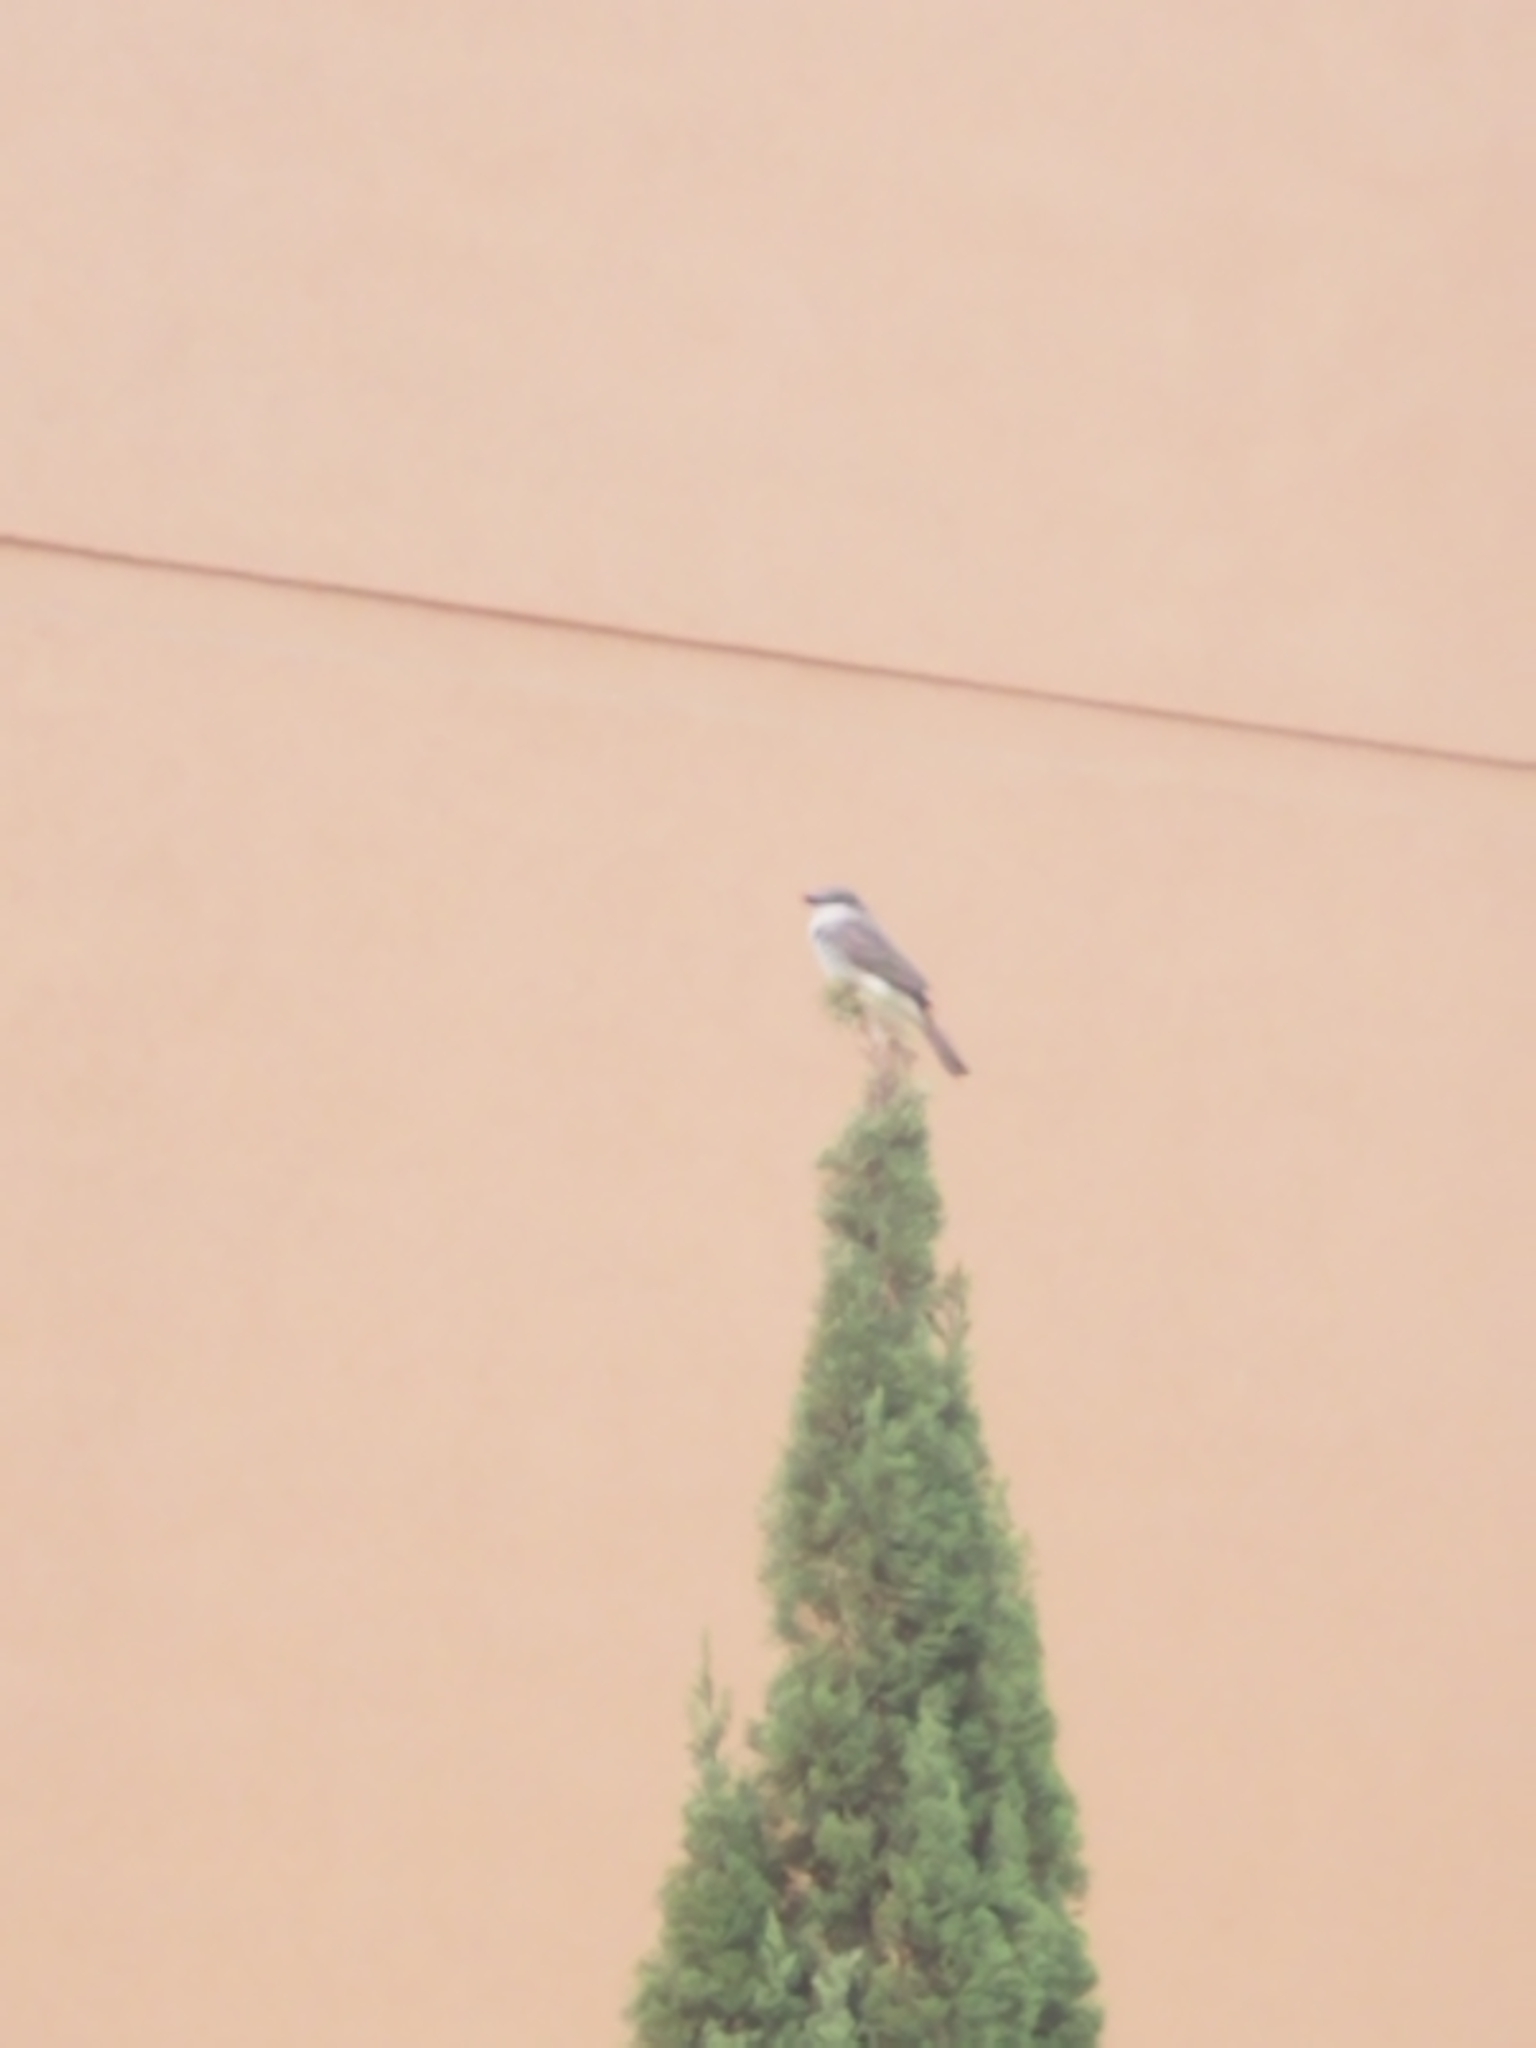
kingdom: Animalia
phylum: Chordata
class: Aves
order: Passeriformes
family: Tyrannidae
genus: Tyrannus
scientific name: Tyrannus dominicensis
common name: Gray kingbird
